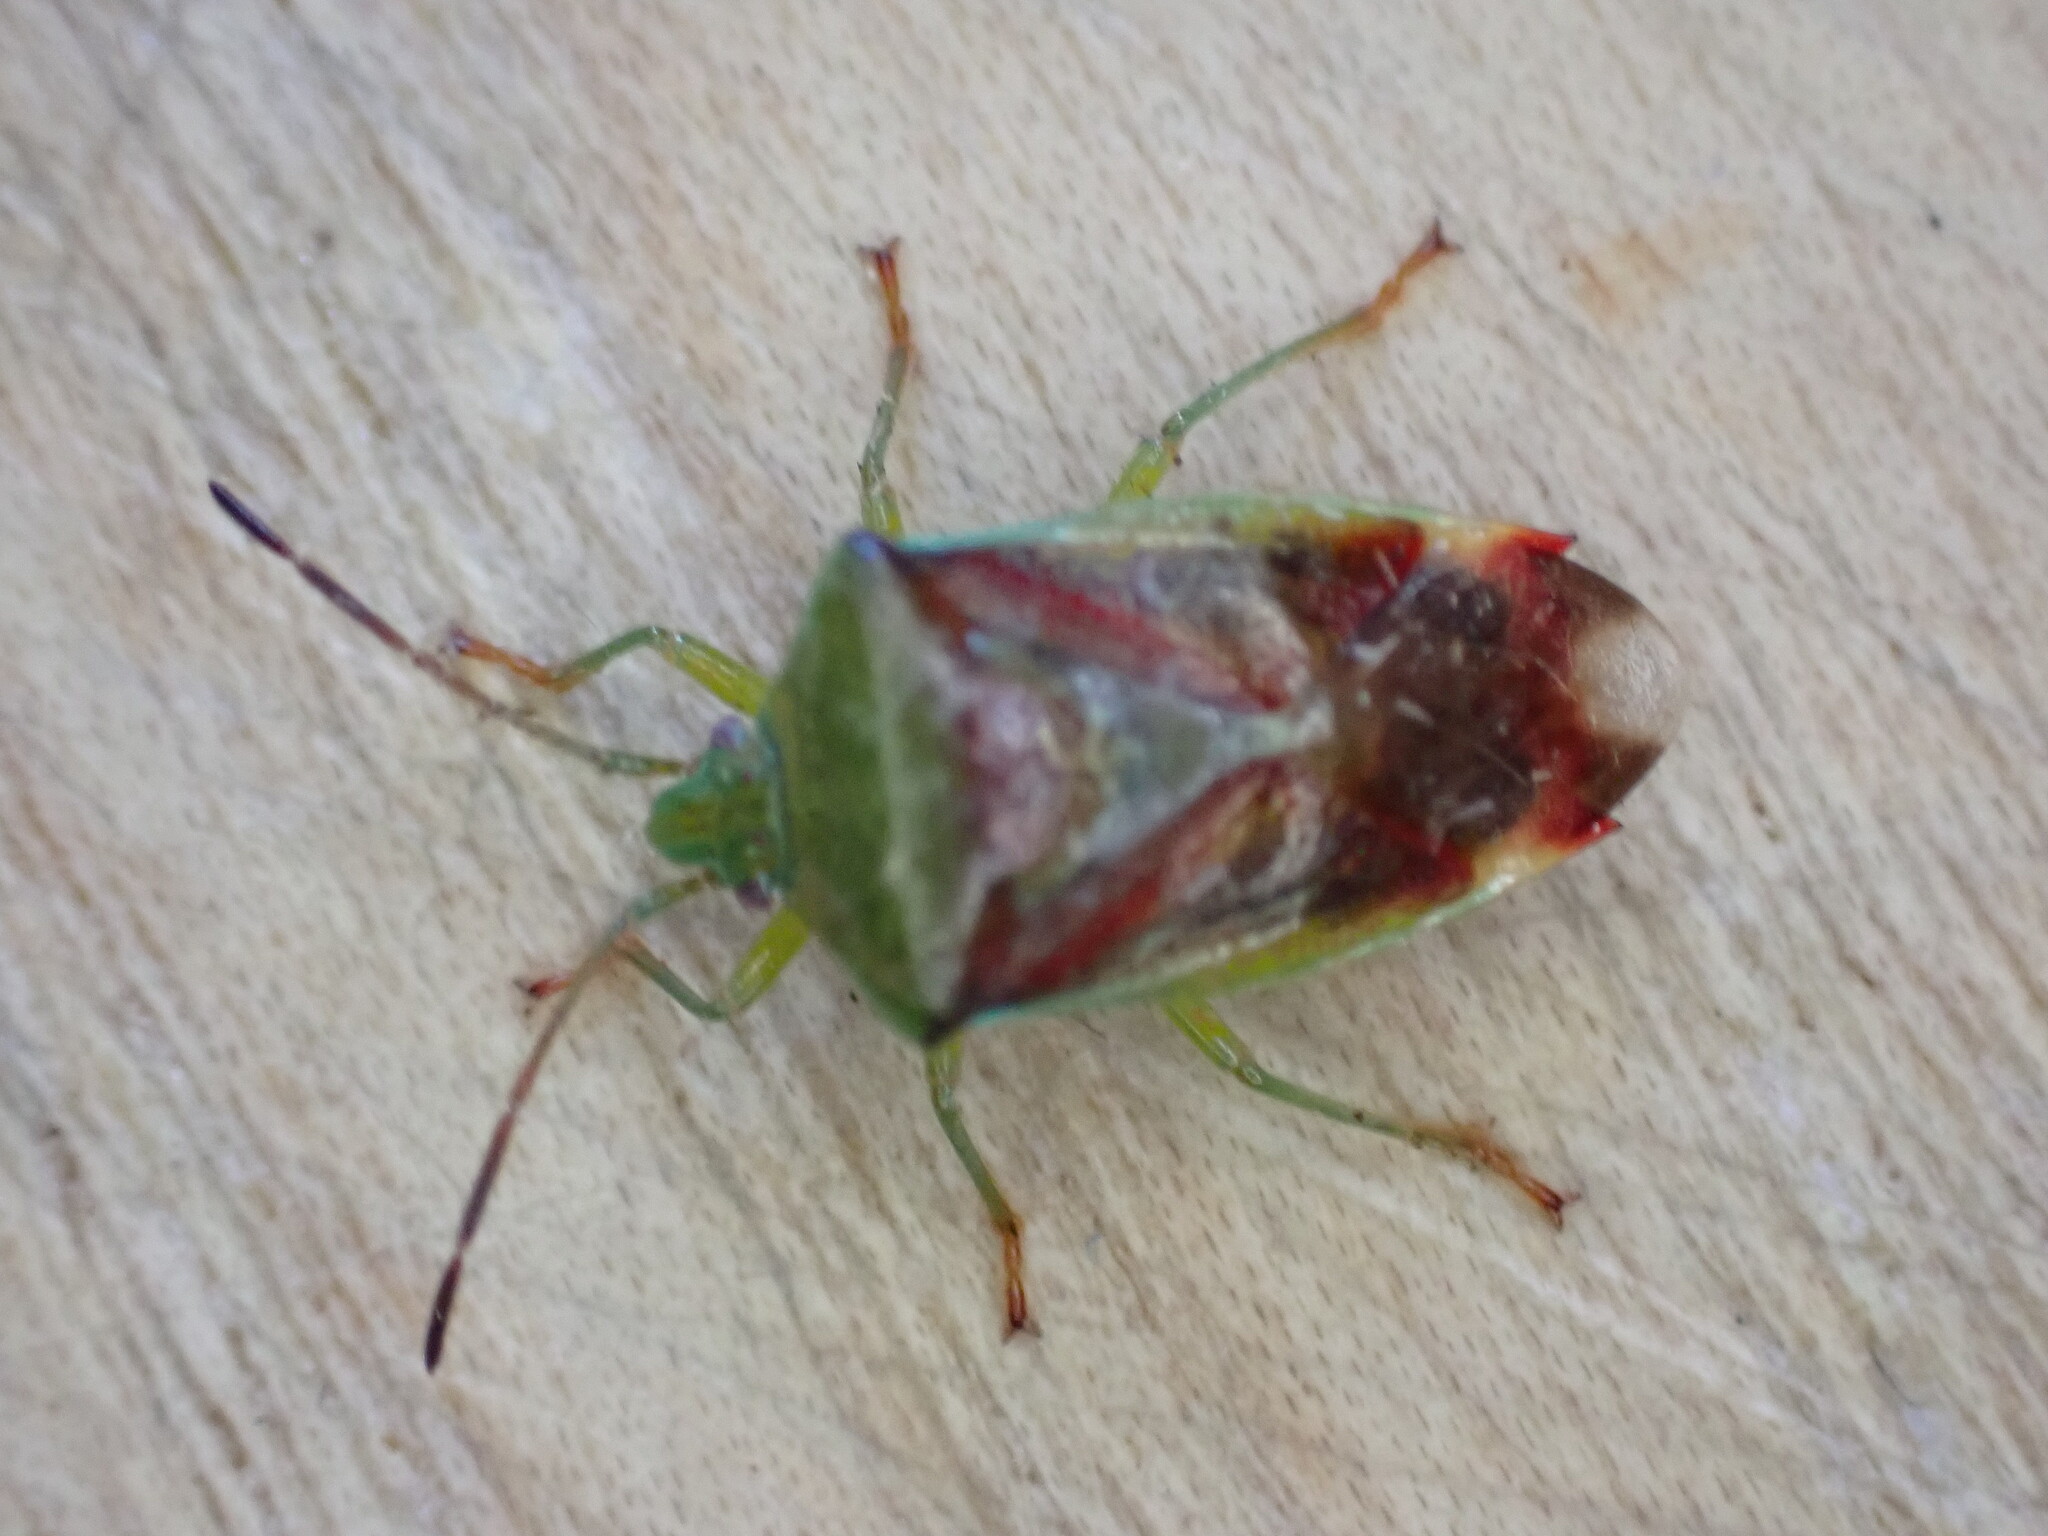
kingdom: Animalia
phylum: Arthropoda
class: Insecta
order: Hemiptera
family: Acanthosomatidae
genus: Elasmostethus
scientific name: Elasmostethus interstinctus
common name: Birch shieldbug
